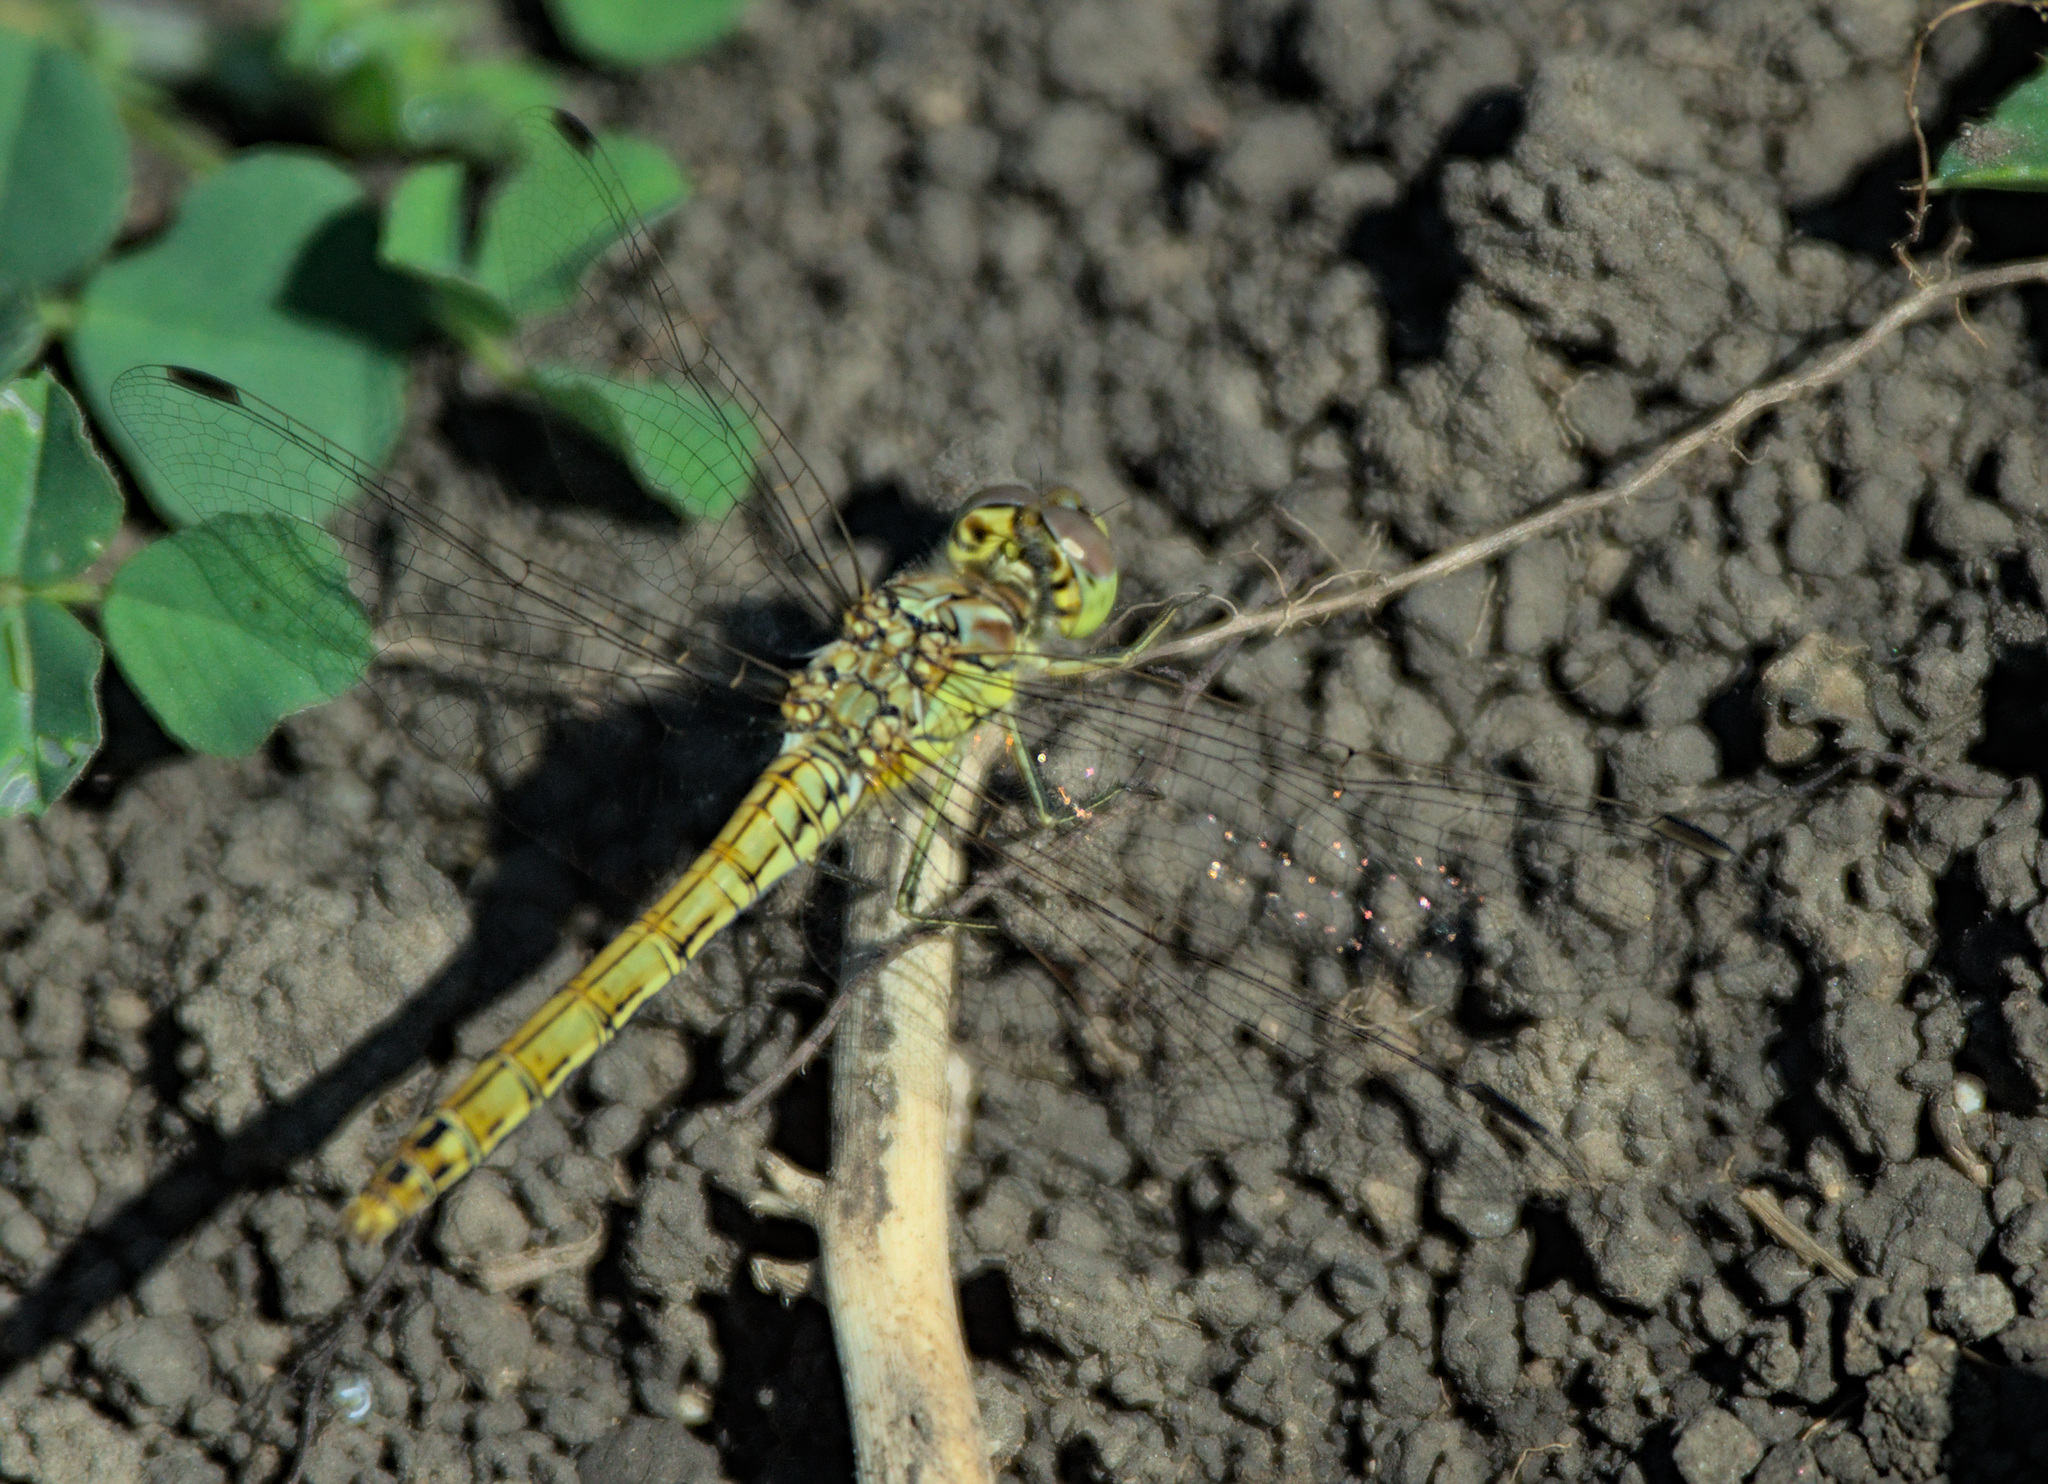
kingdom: Animalia
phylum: Arthropoda
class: Insecta
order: Odonata
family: Libellulidae
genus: Sympetrum
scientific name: Sympetrum vulgatum
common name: Vagrant darter
